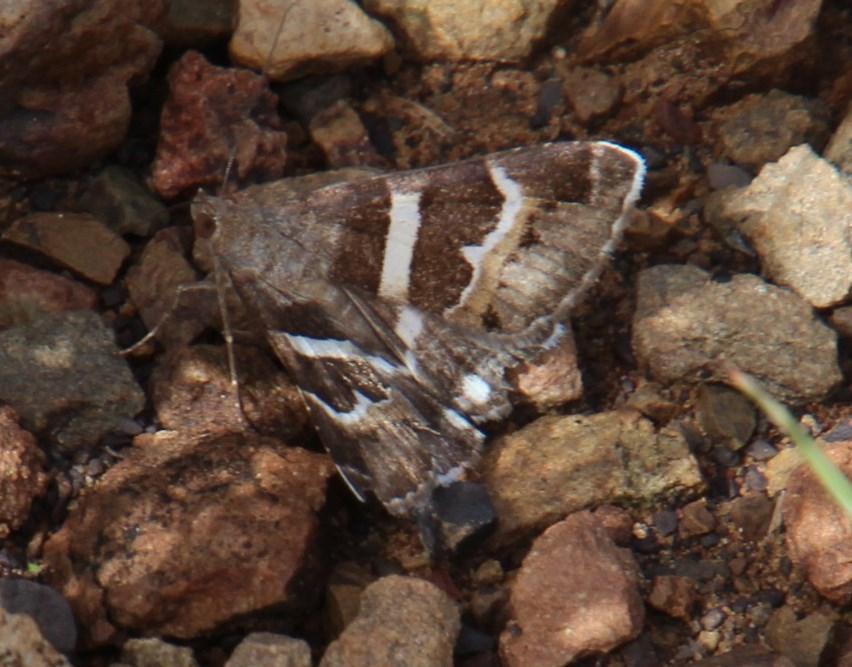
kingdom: Animalia
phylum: Arthropoda
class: Insecta
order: Lepidoptera
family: Erebidae
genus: Grammodes
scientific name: Grammodes stolida
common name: Geometrician
